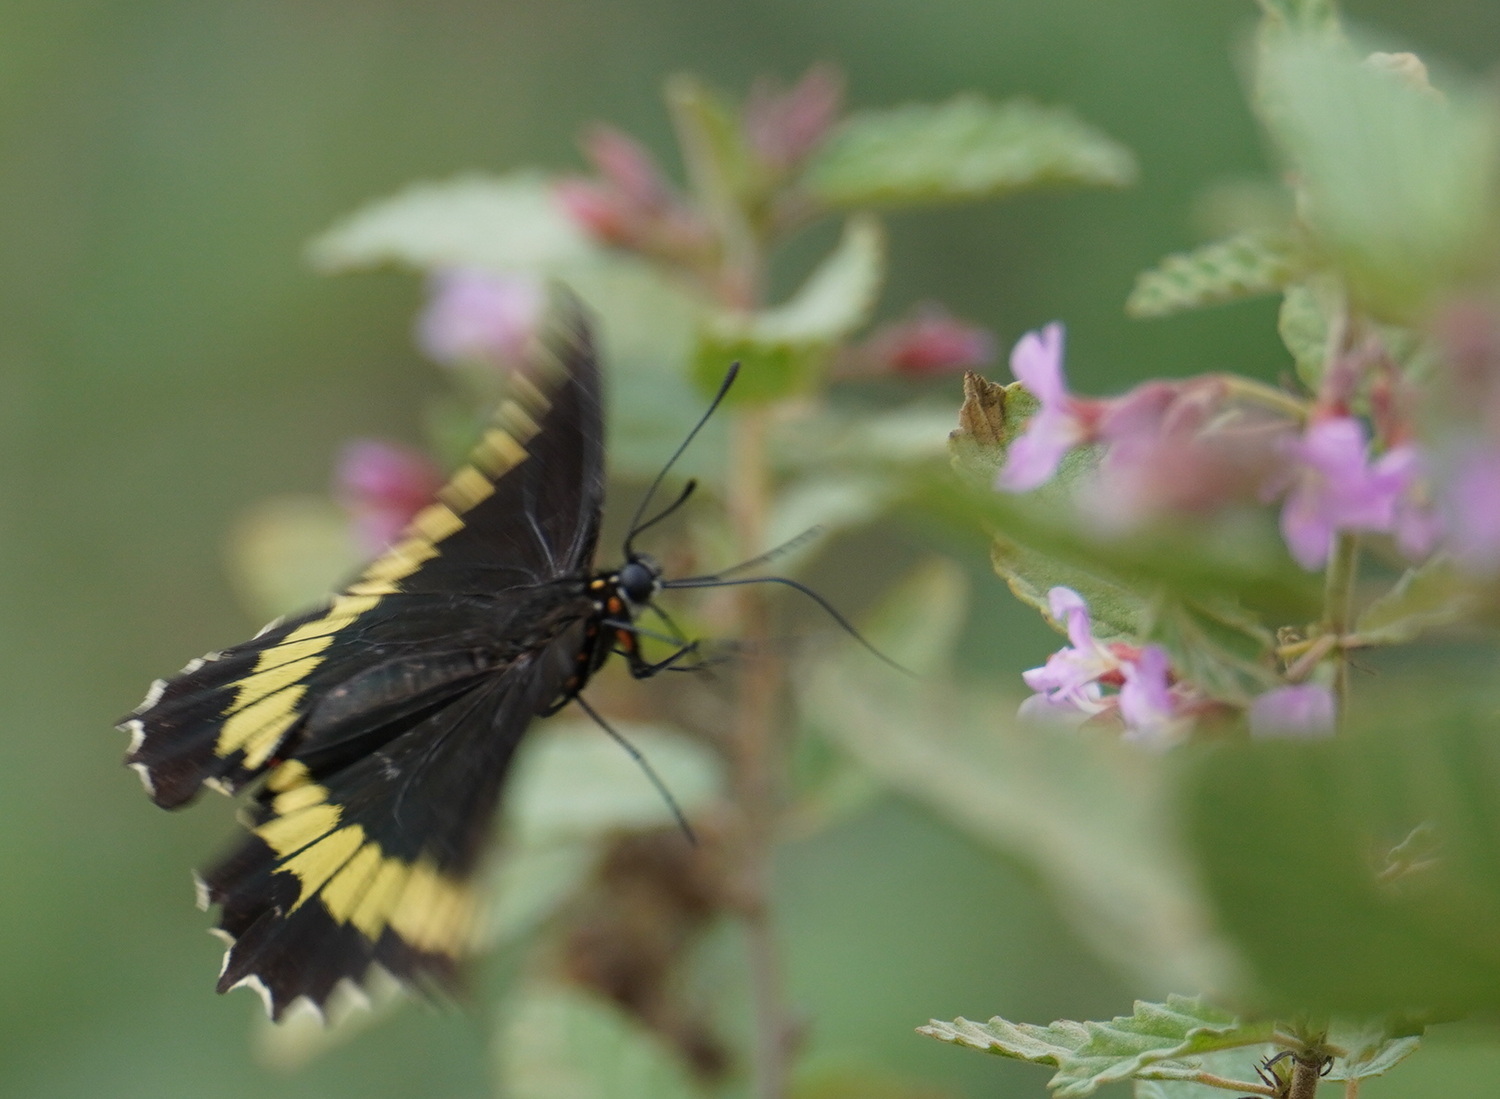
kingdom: Animalia
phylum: Arthropoda
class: Insecta
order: Lepidoptera
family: Papilionidae
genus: Battus
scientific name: Battus polydamas
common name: Polydamas swallowtail
